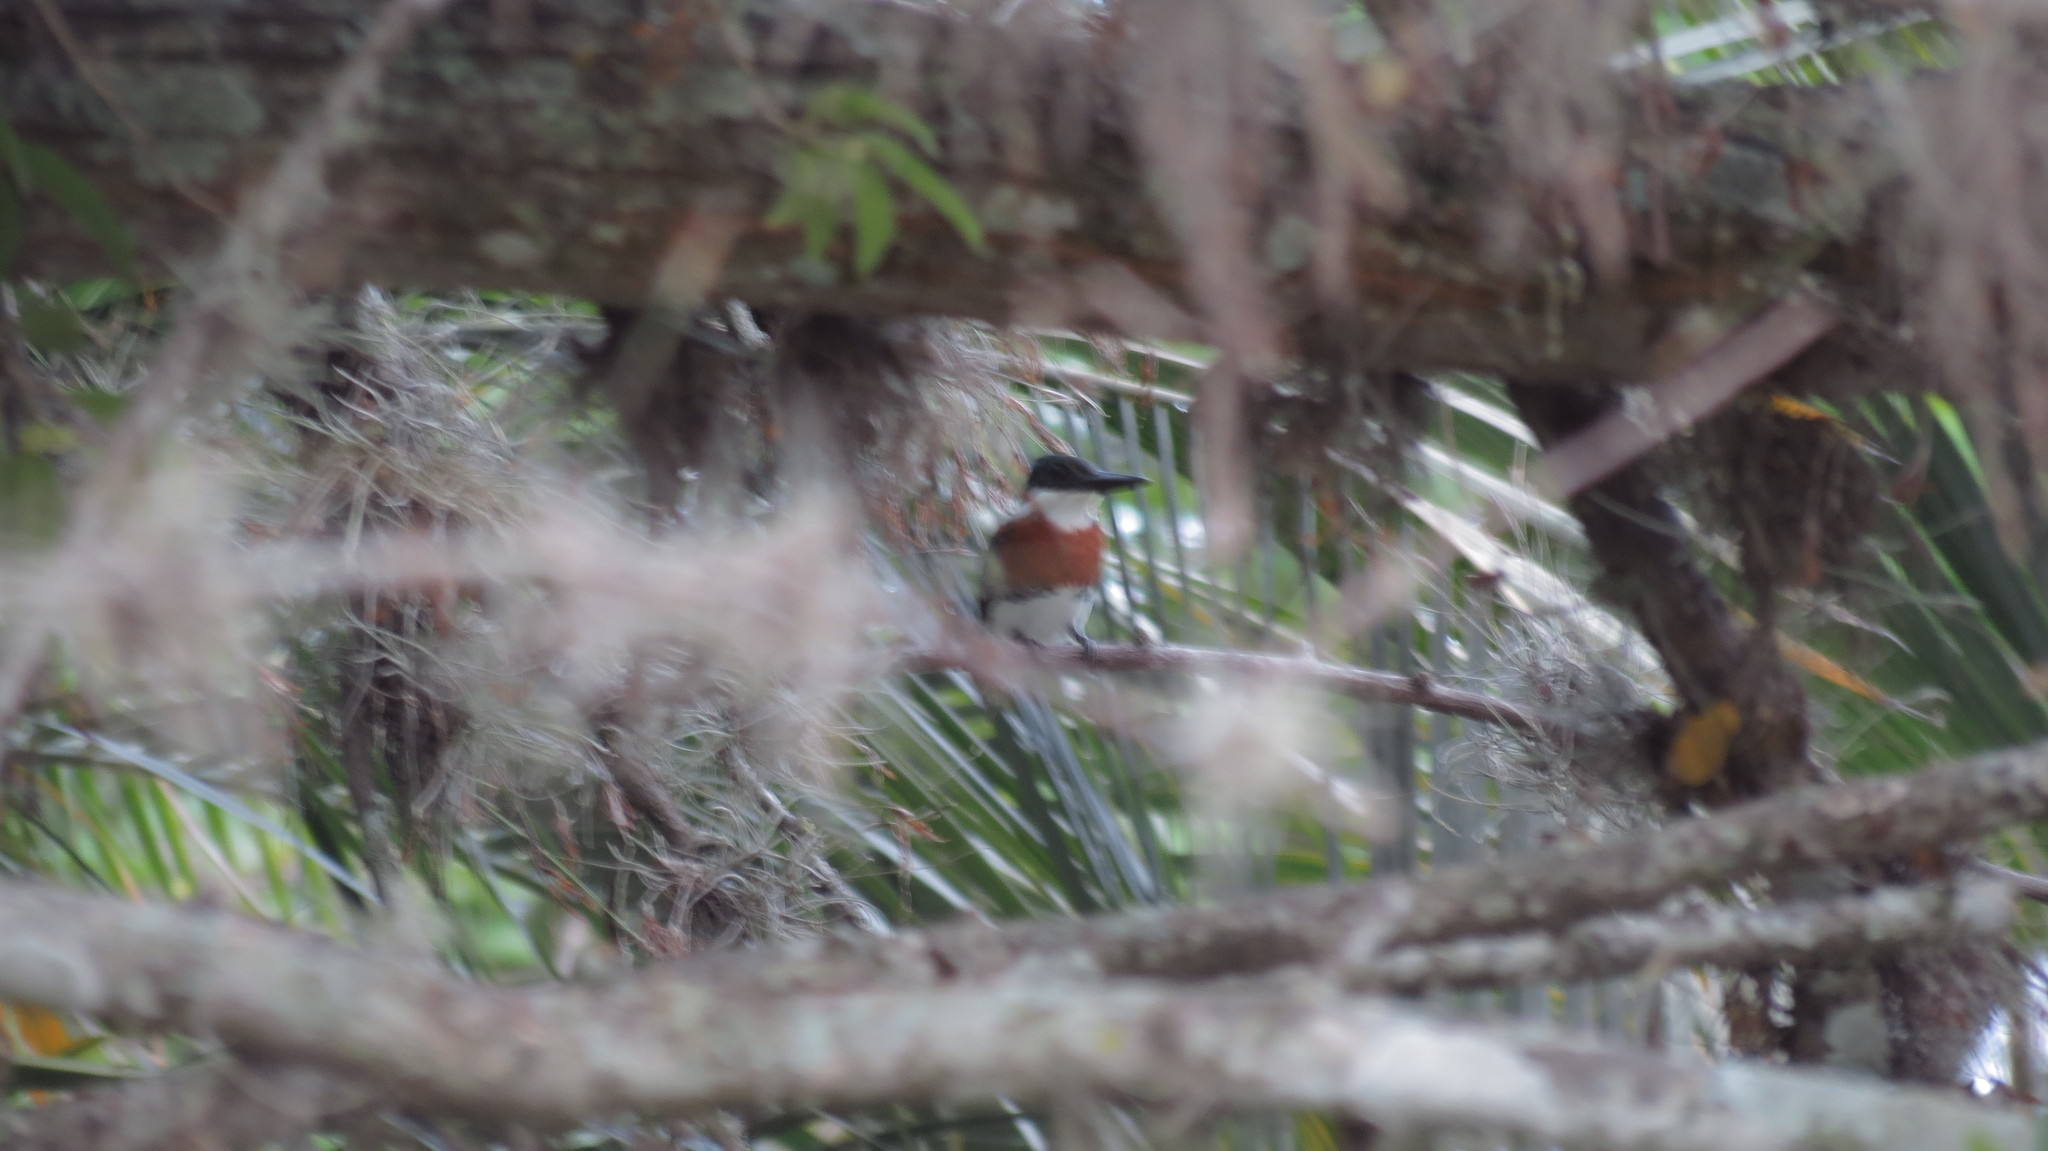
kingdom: Animalia
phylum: Chordata
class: Aves
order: Coraciiformes
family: Alcedinidae
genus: Chloroceryle
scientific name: Chloroceryle amazona
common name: Amazon kingfisher
